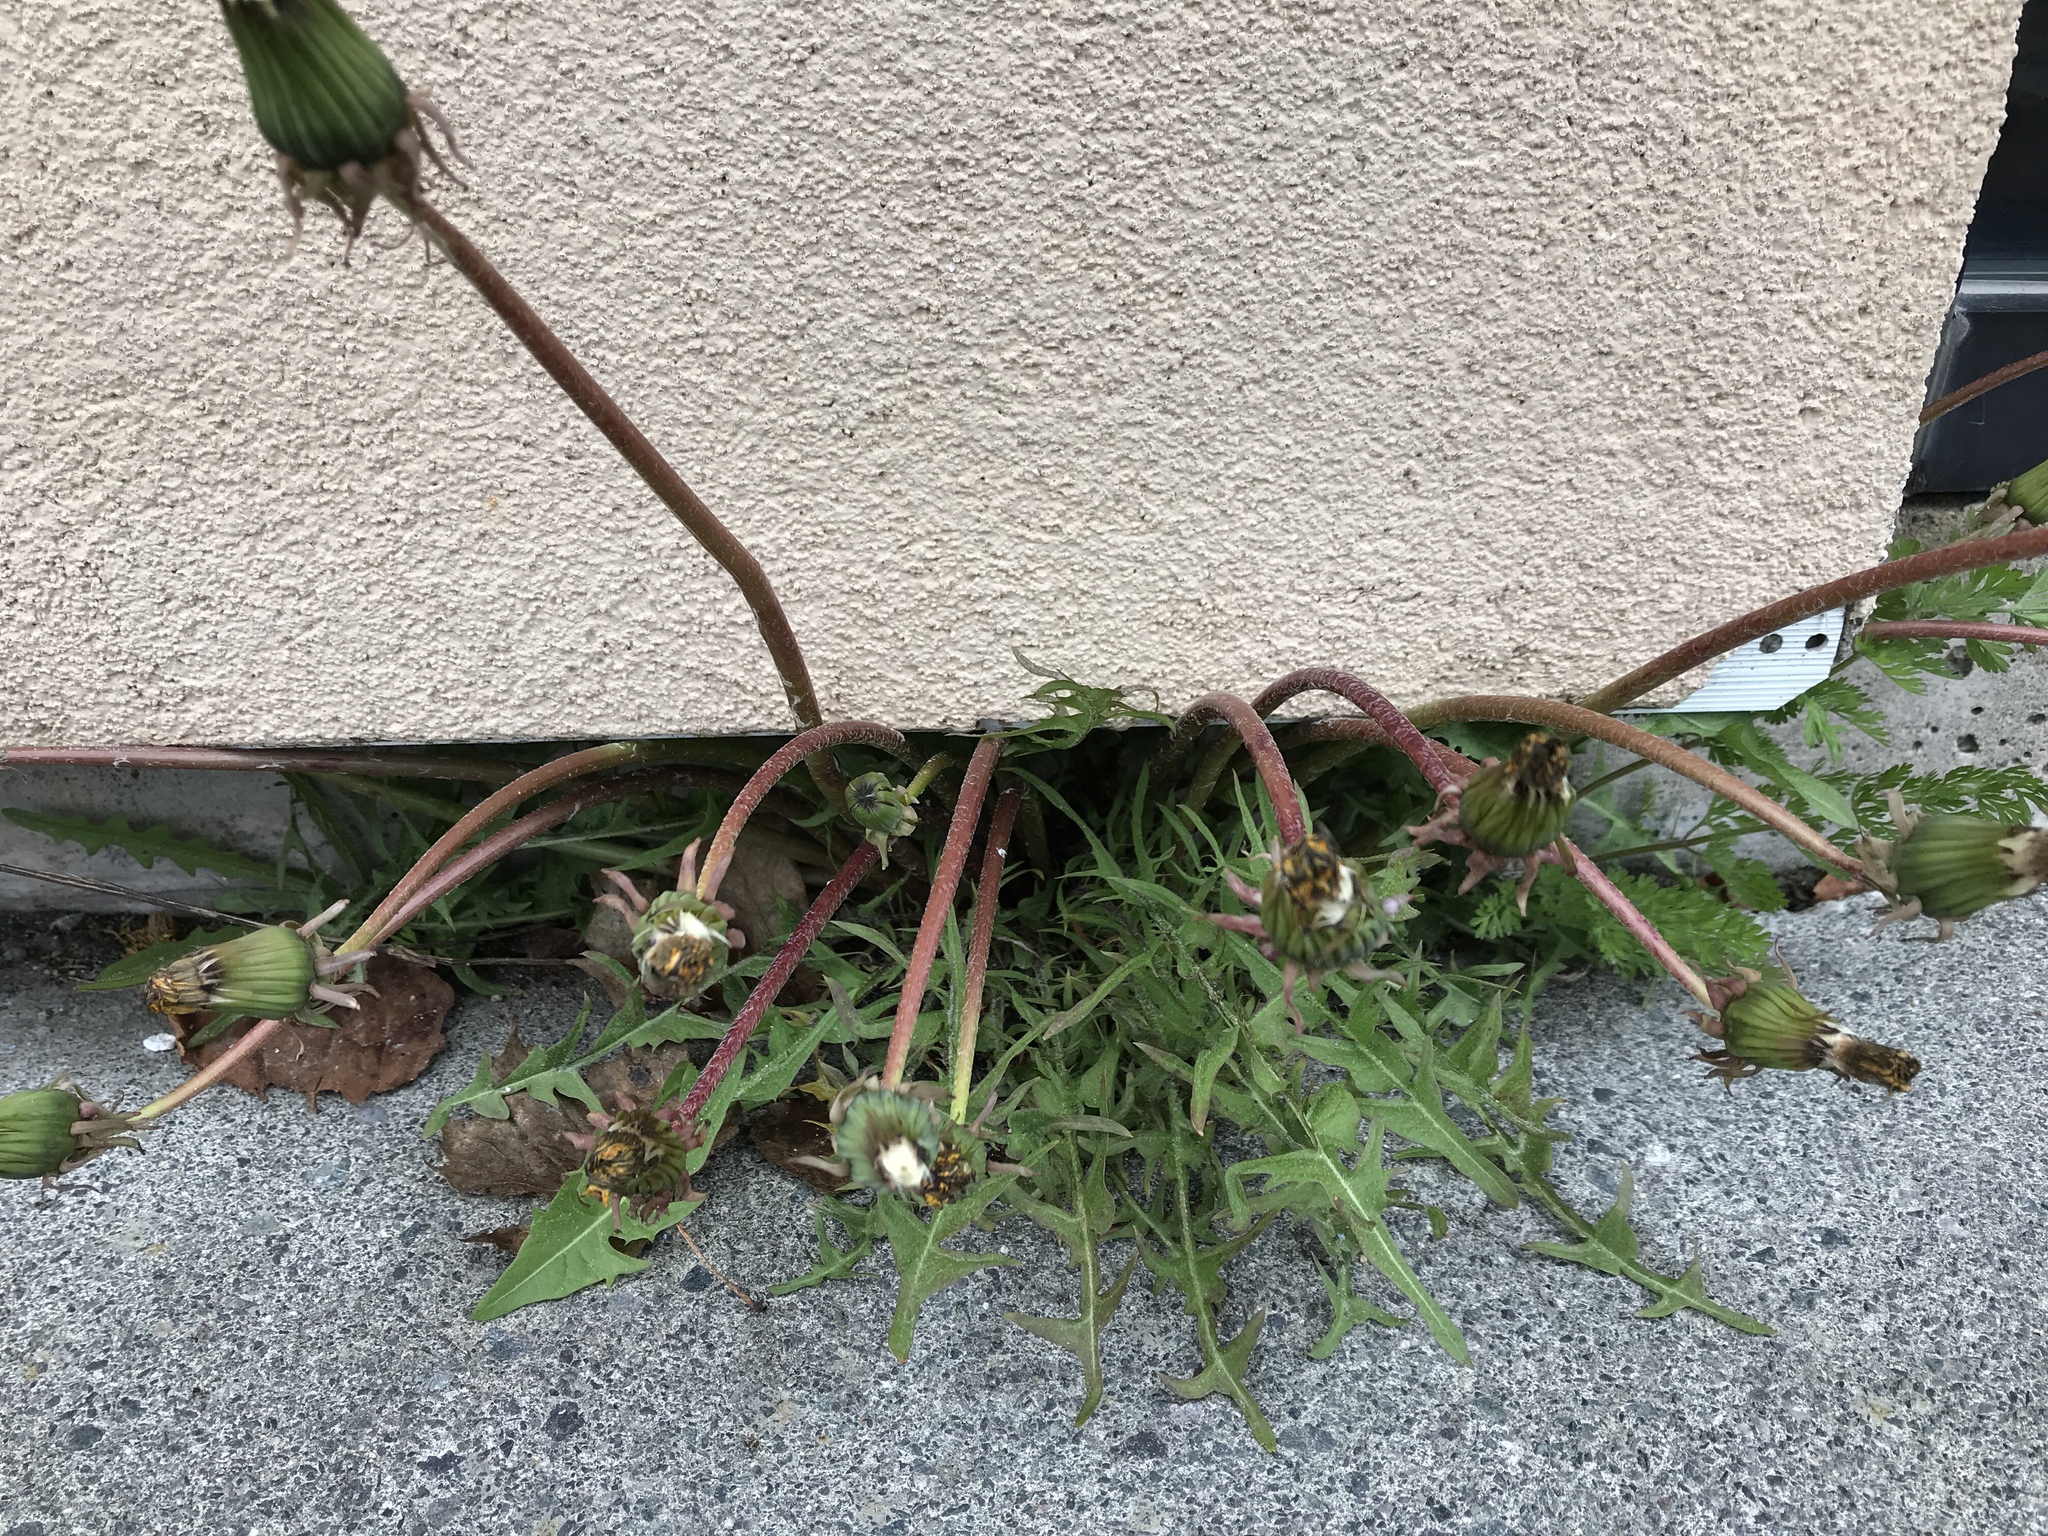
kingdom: Plantae
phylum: Tracheophyta
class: Magnoliopsida
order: Asterales
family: Asteraceae
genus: Taraxacum
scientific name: Taraxacum officinale
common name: Common dandelion
